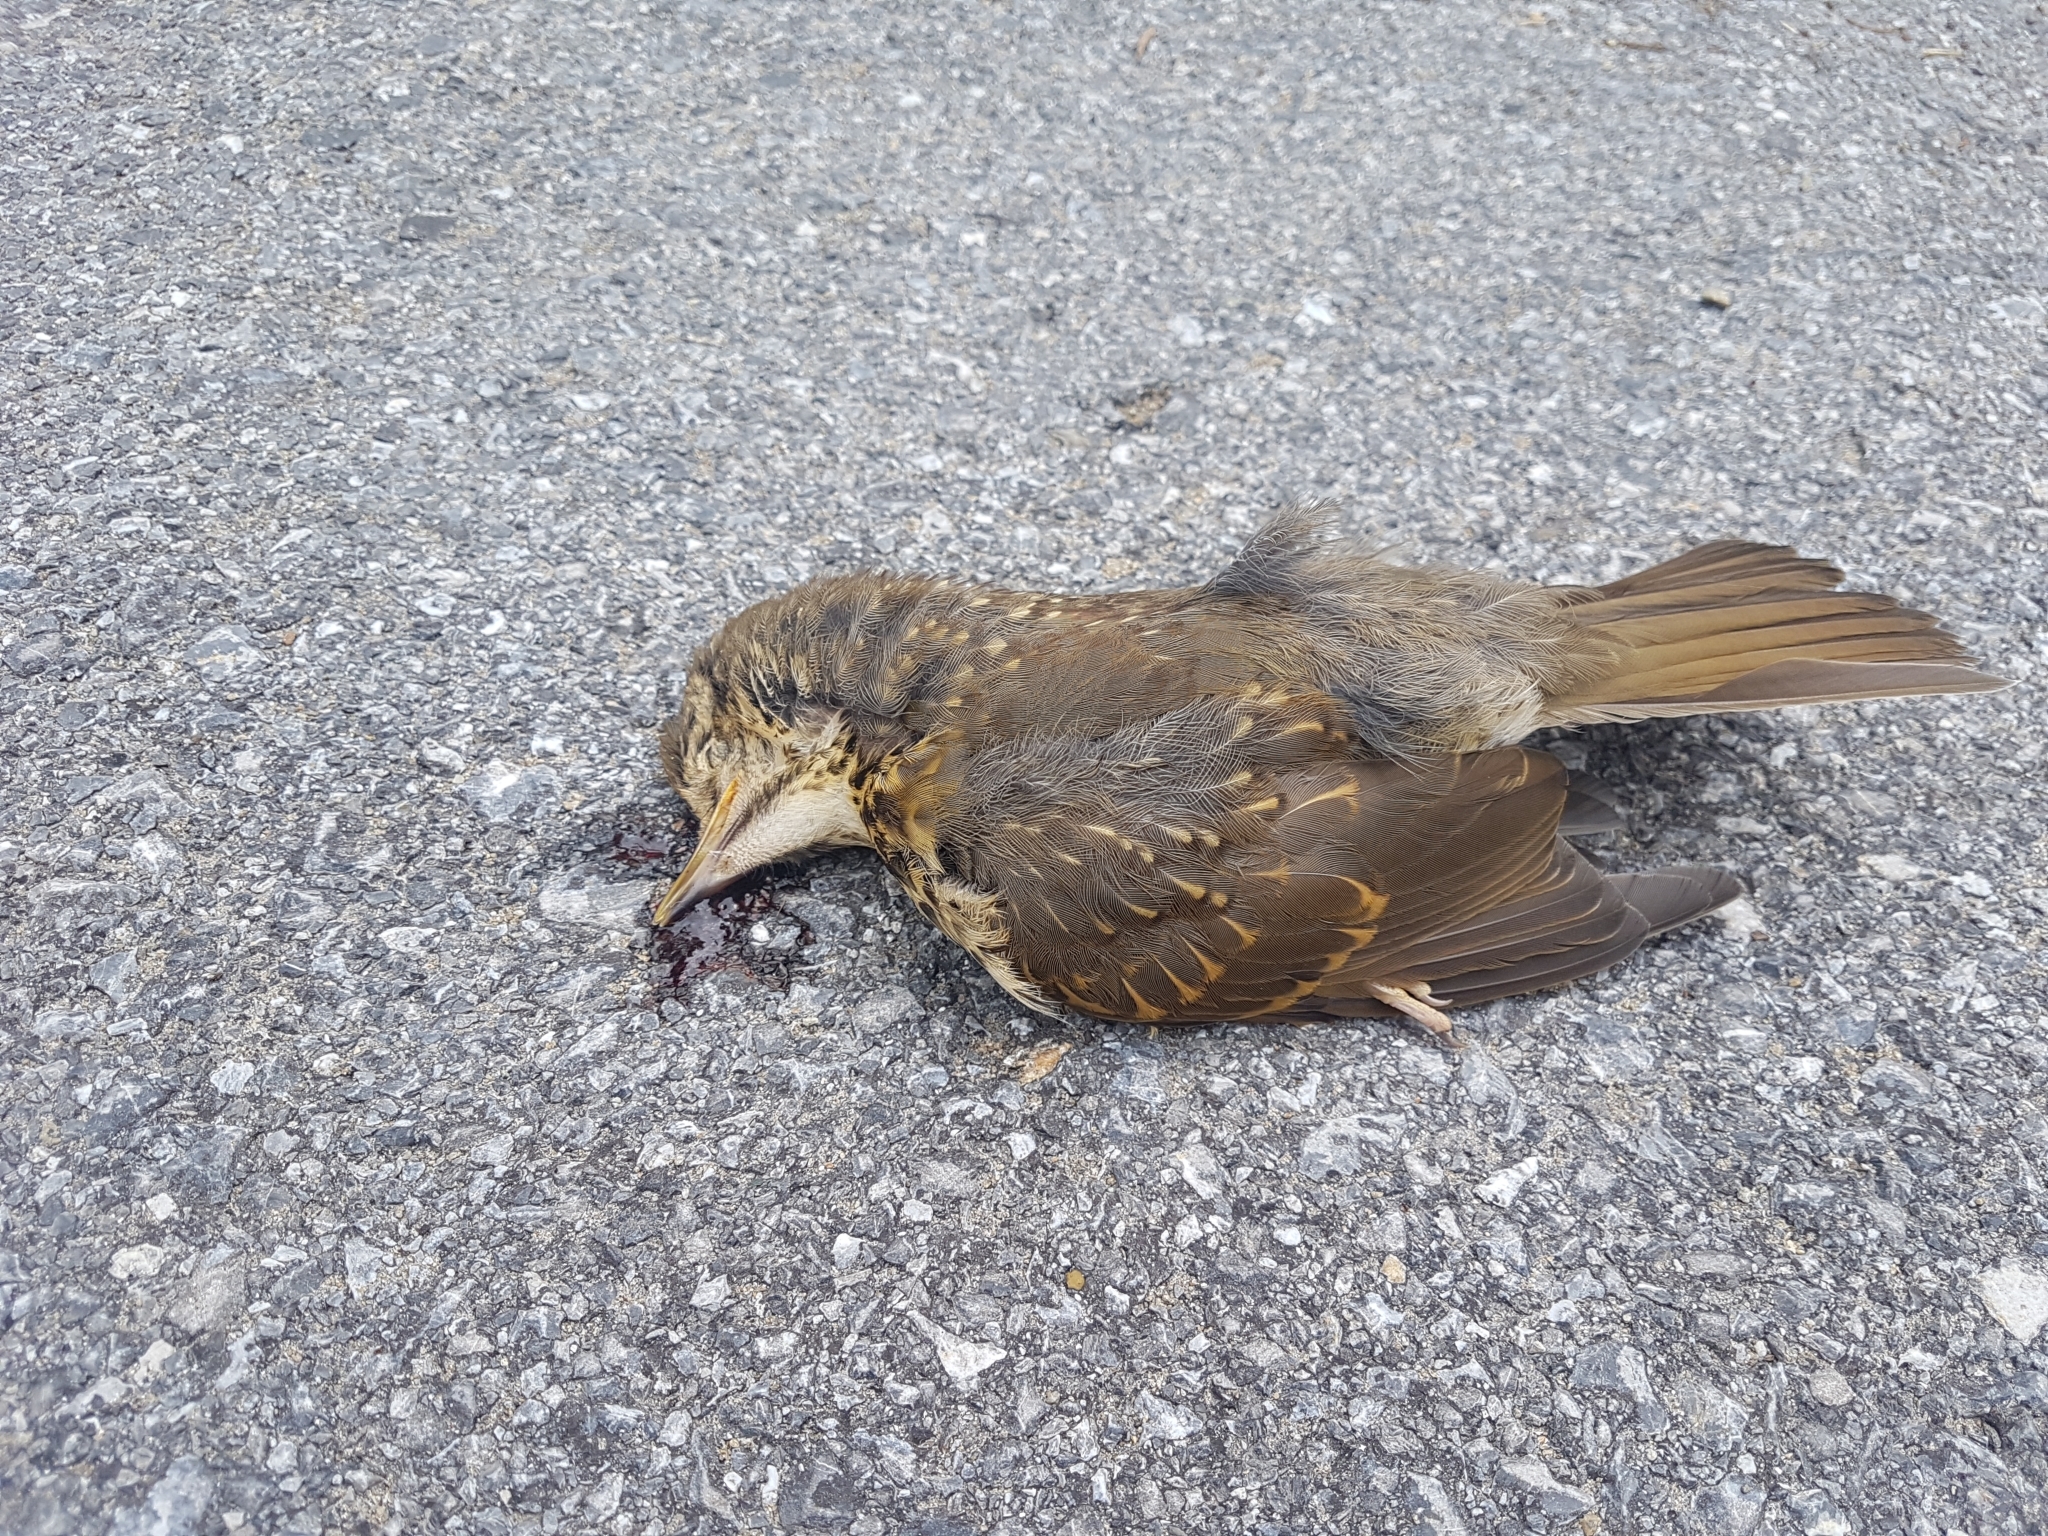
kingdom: Animalia
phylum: Chordata
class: Aves
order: Passeriformes
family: Turdidae
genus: Turdus
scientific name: Turdus philomelos
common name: Song thrush
